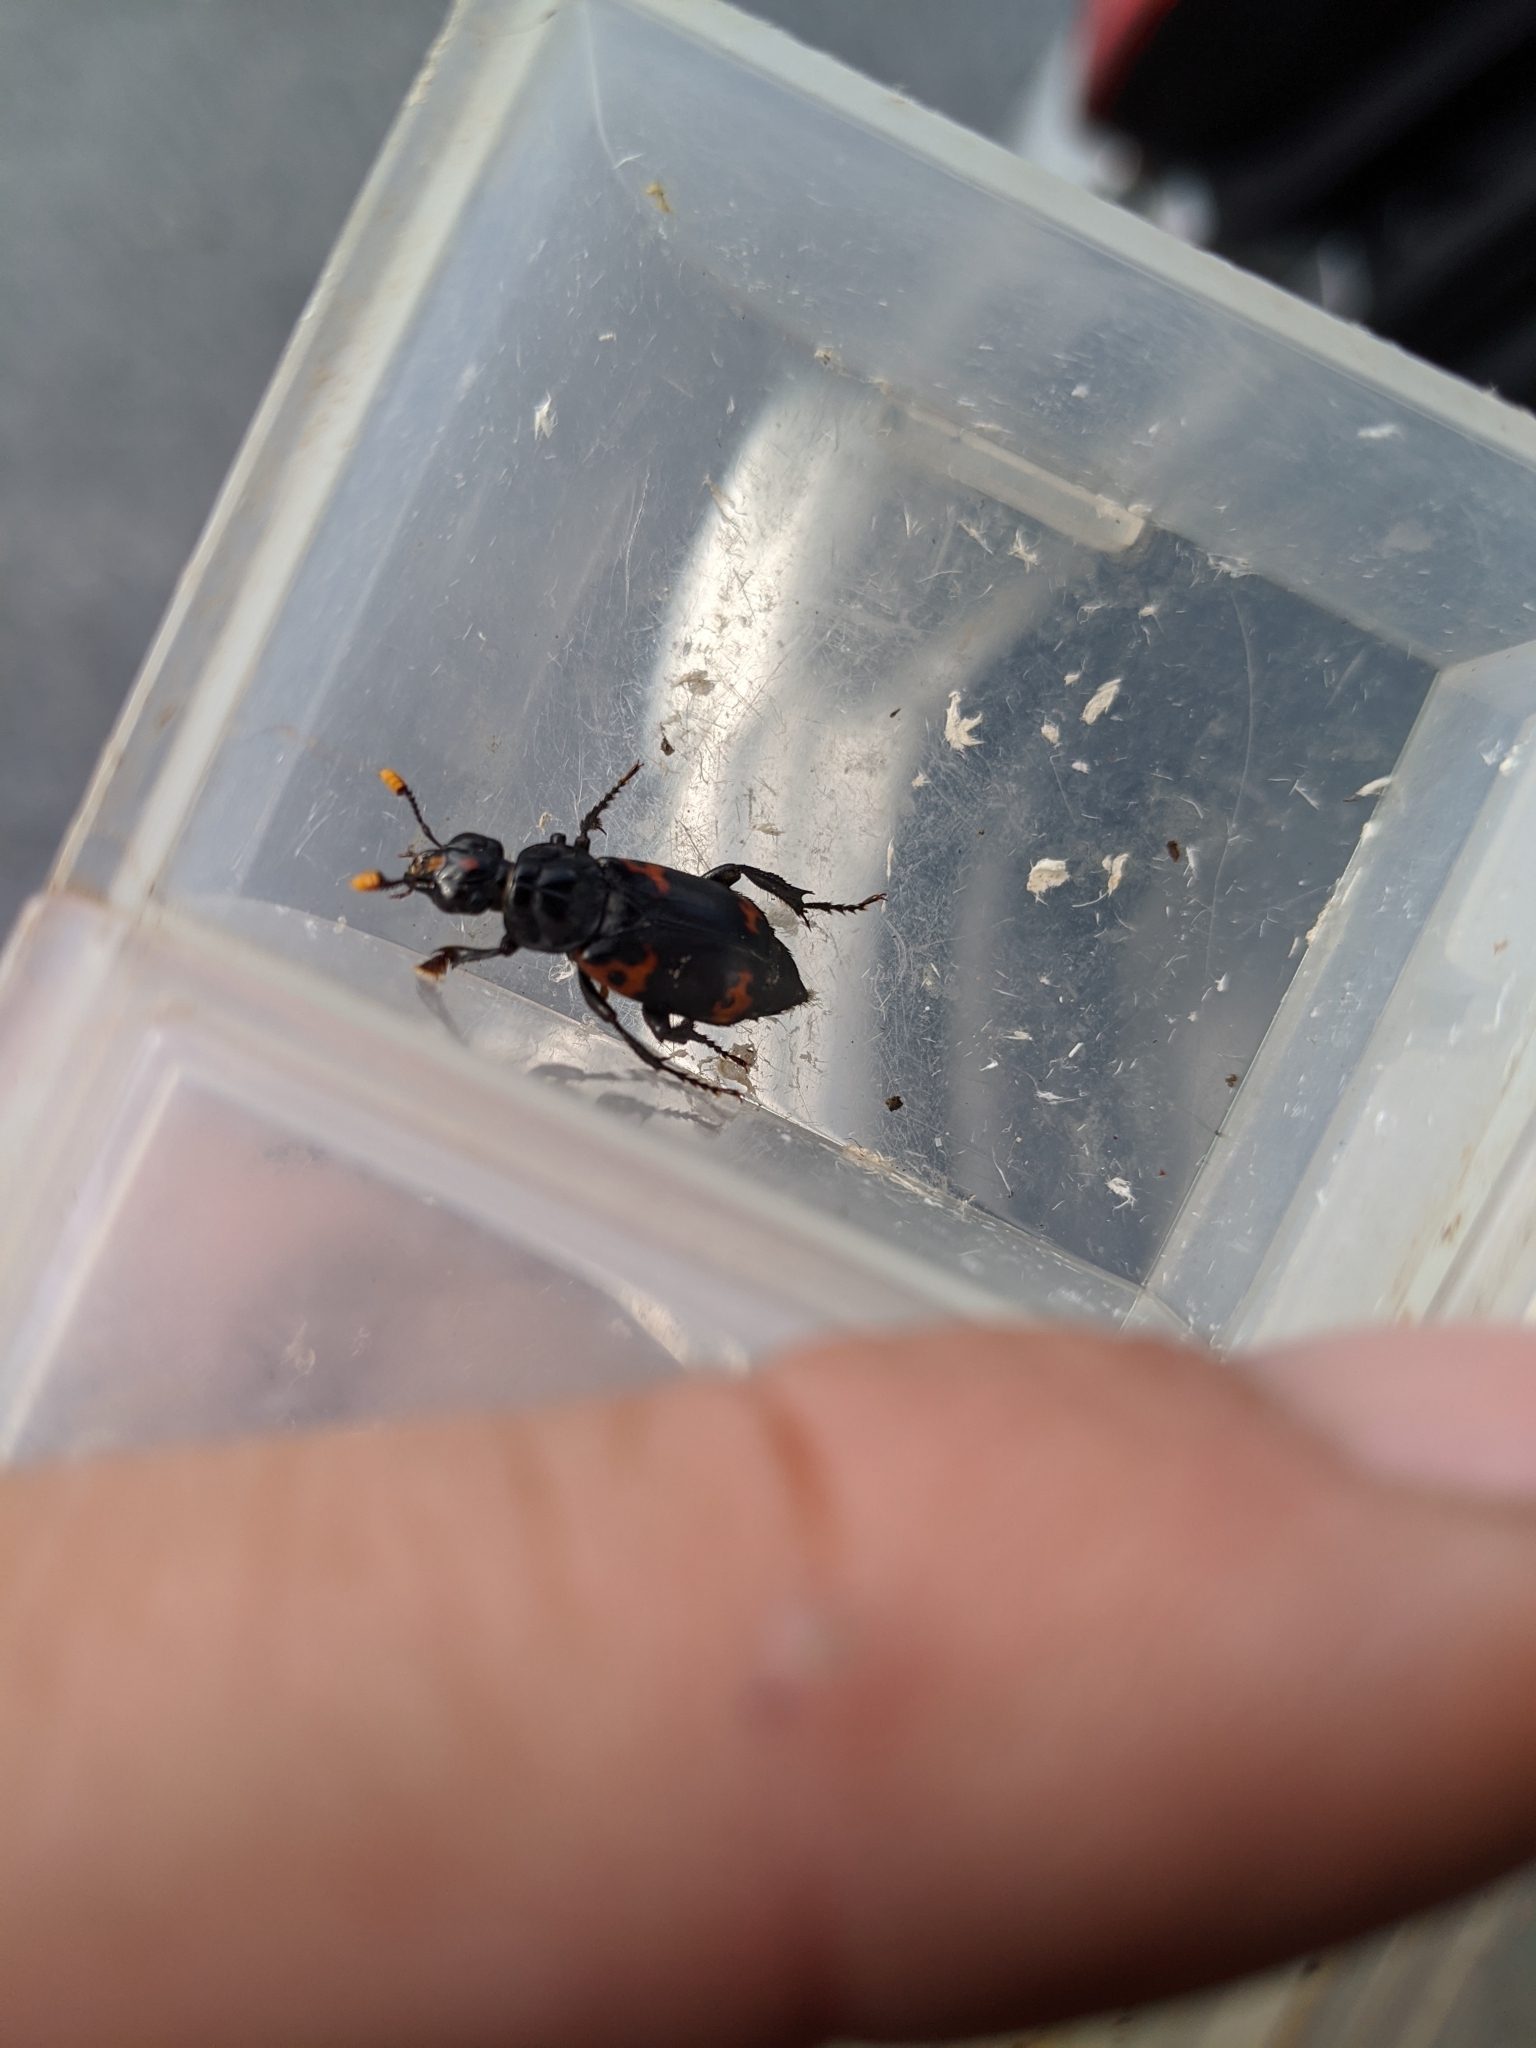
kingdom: Animalia
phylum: Arthropoda
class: Insecta
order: Coleoptera
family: Staphylinidae
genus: Nicrophorus
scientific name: Nicrophorus nepalensis
